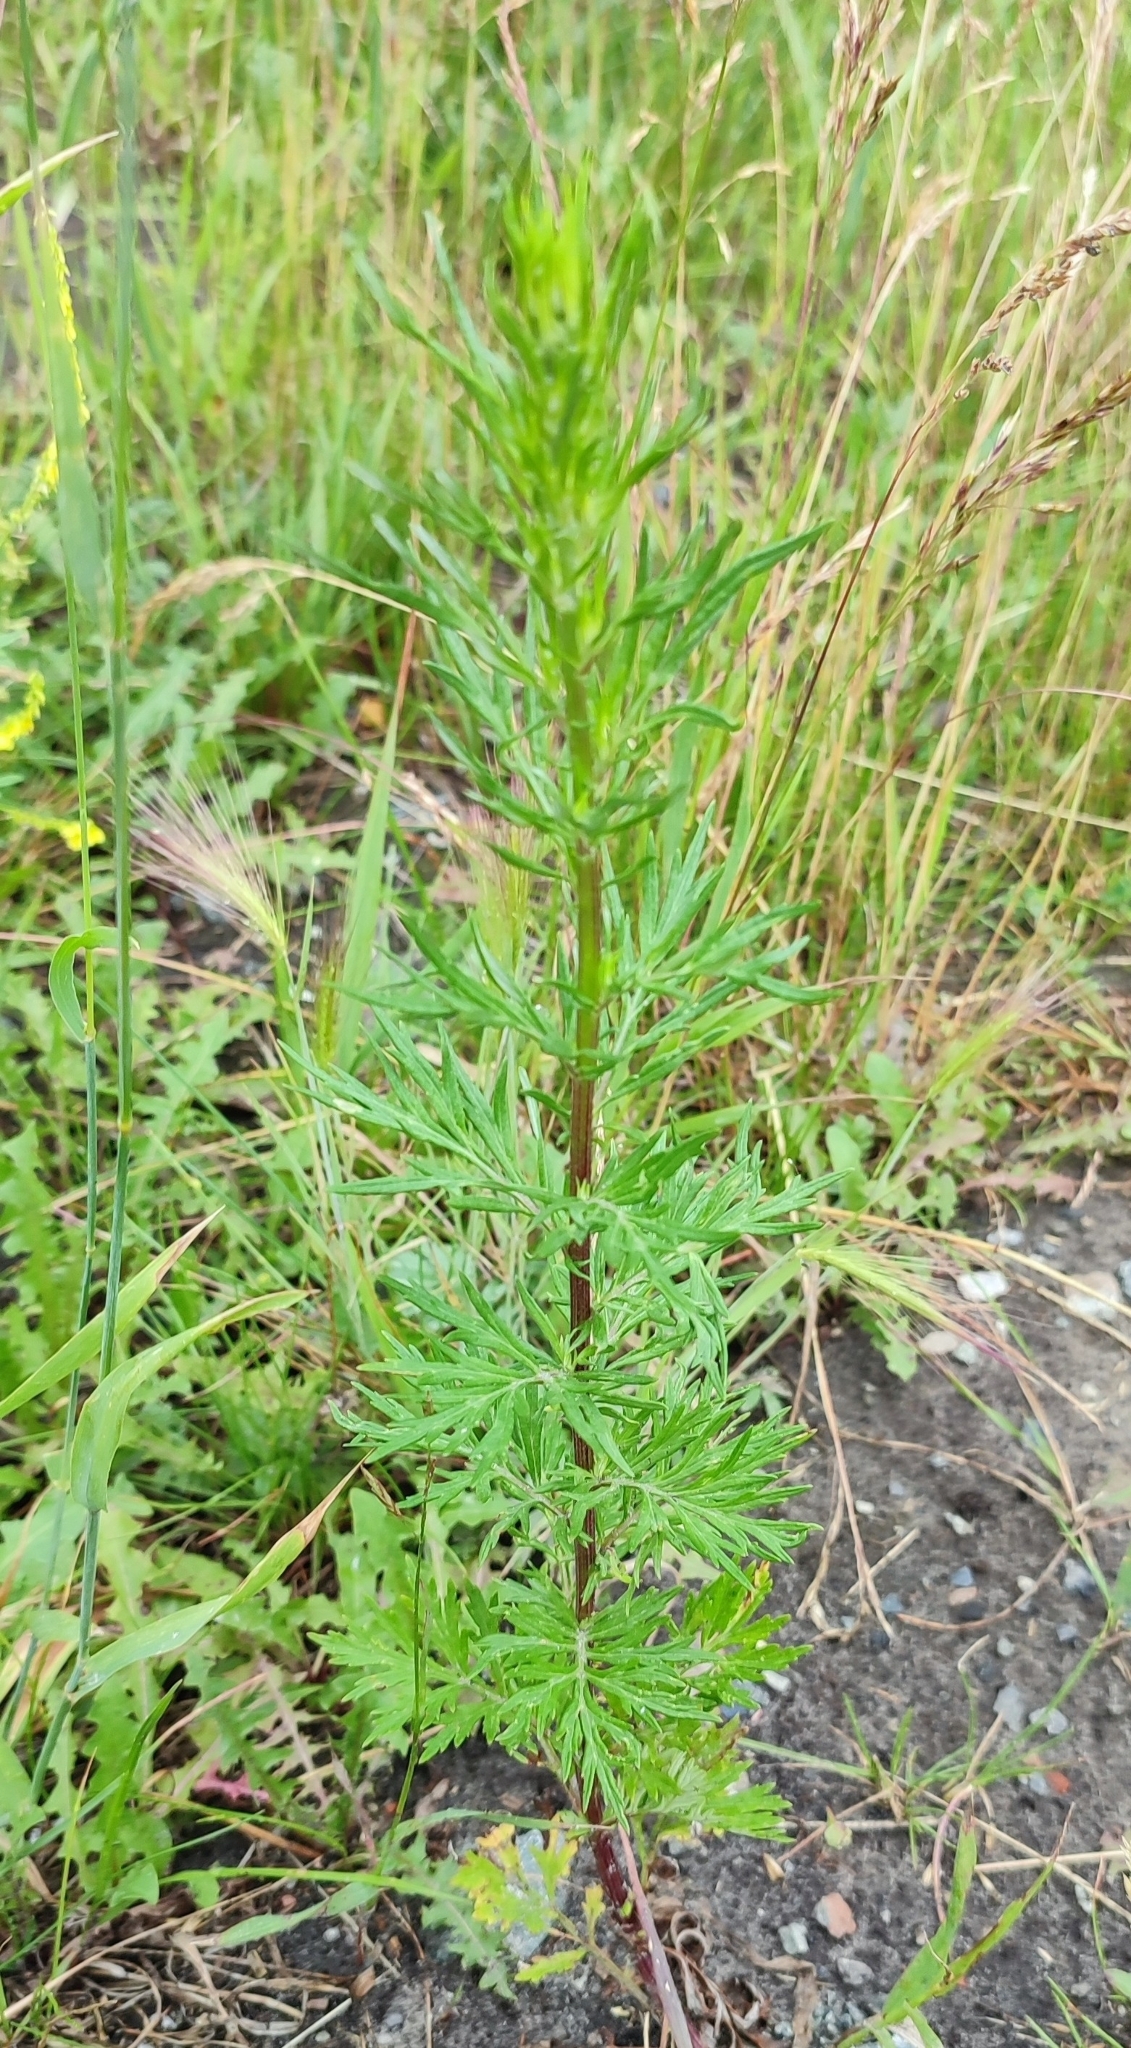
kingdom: Plantae
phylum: Tracheophyta
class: Magnoliopsida
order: Asterales
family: Asteraceae
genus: Artemisia
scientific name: Artemisia vulgaris
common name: Mugwort
